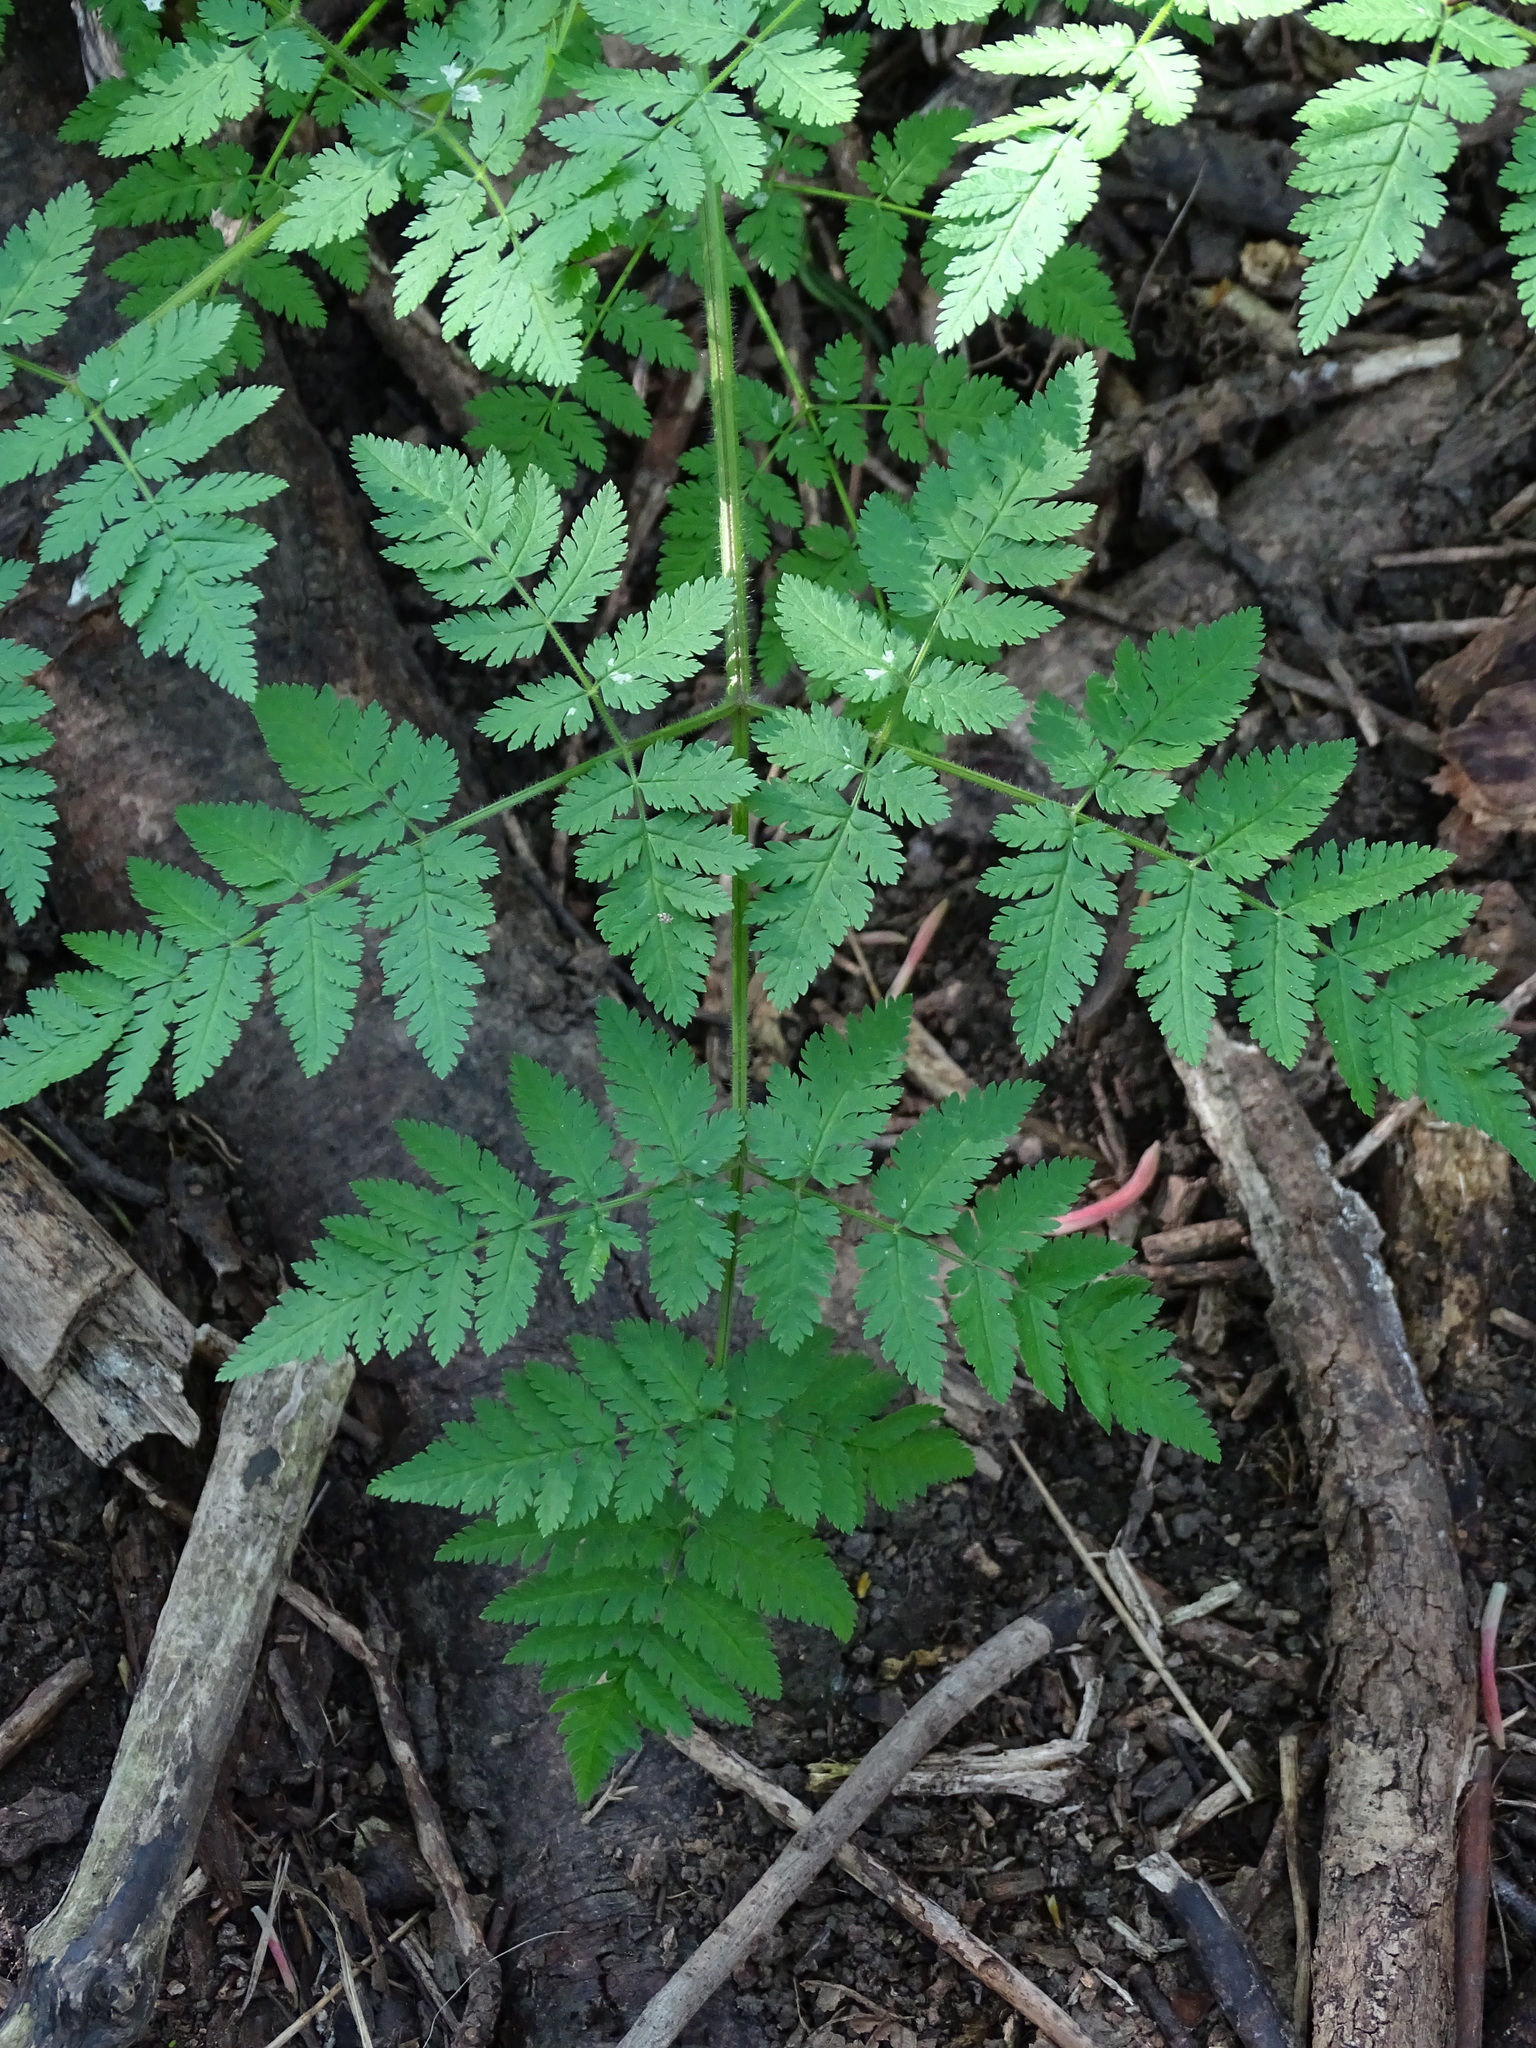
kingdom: Plantae
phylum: Tracheophyta
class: Magnoliopsida
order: Apiales
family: Apiaceae
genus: Myrrhis
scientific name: Myrrhis odorata
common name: Sweet cicely
